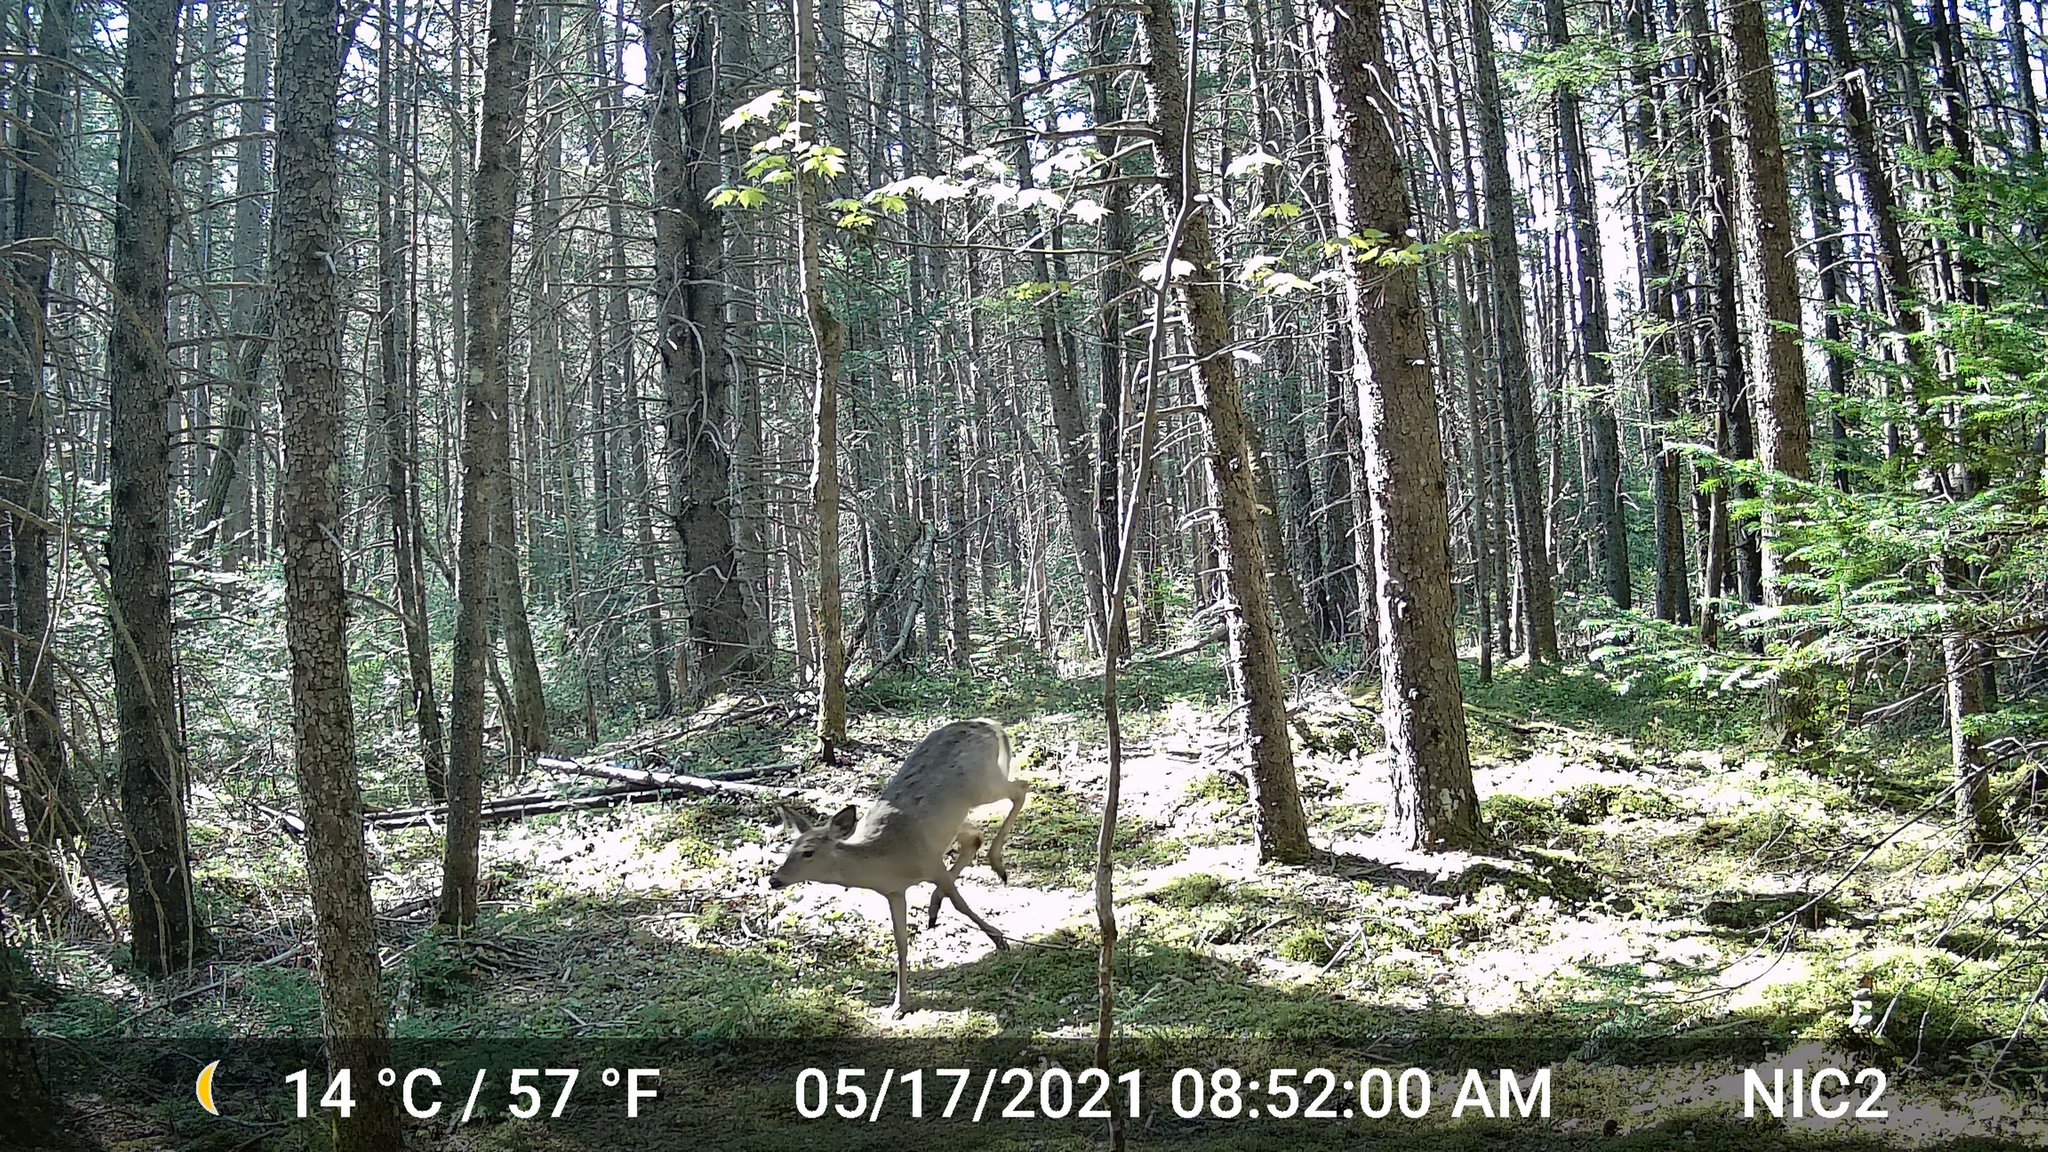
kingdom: Animalia
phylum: Chordata
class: Mammalia
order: Artiodactyla
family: Cervidae
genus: Odocoileus
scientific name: Odocoileus virginianus
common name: White-tailed deer
